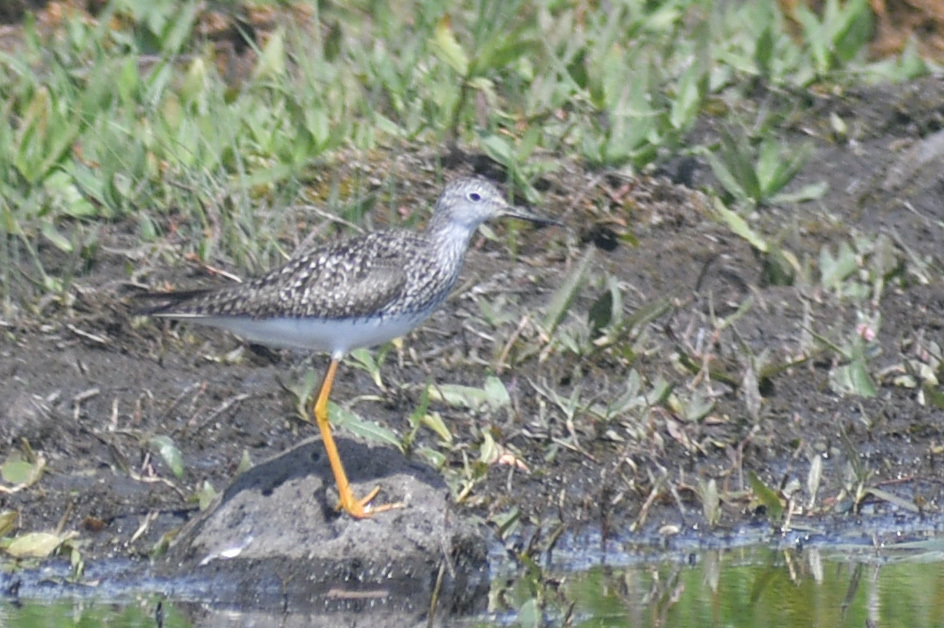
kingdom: Animalia
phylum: Chordata
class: Aves
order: Charadriiformes
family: Scolopacidae
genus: Tringa
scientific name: Tringa flavipes
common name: Lesser yellowlegs
